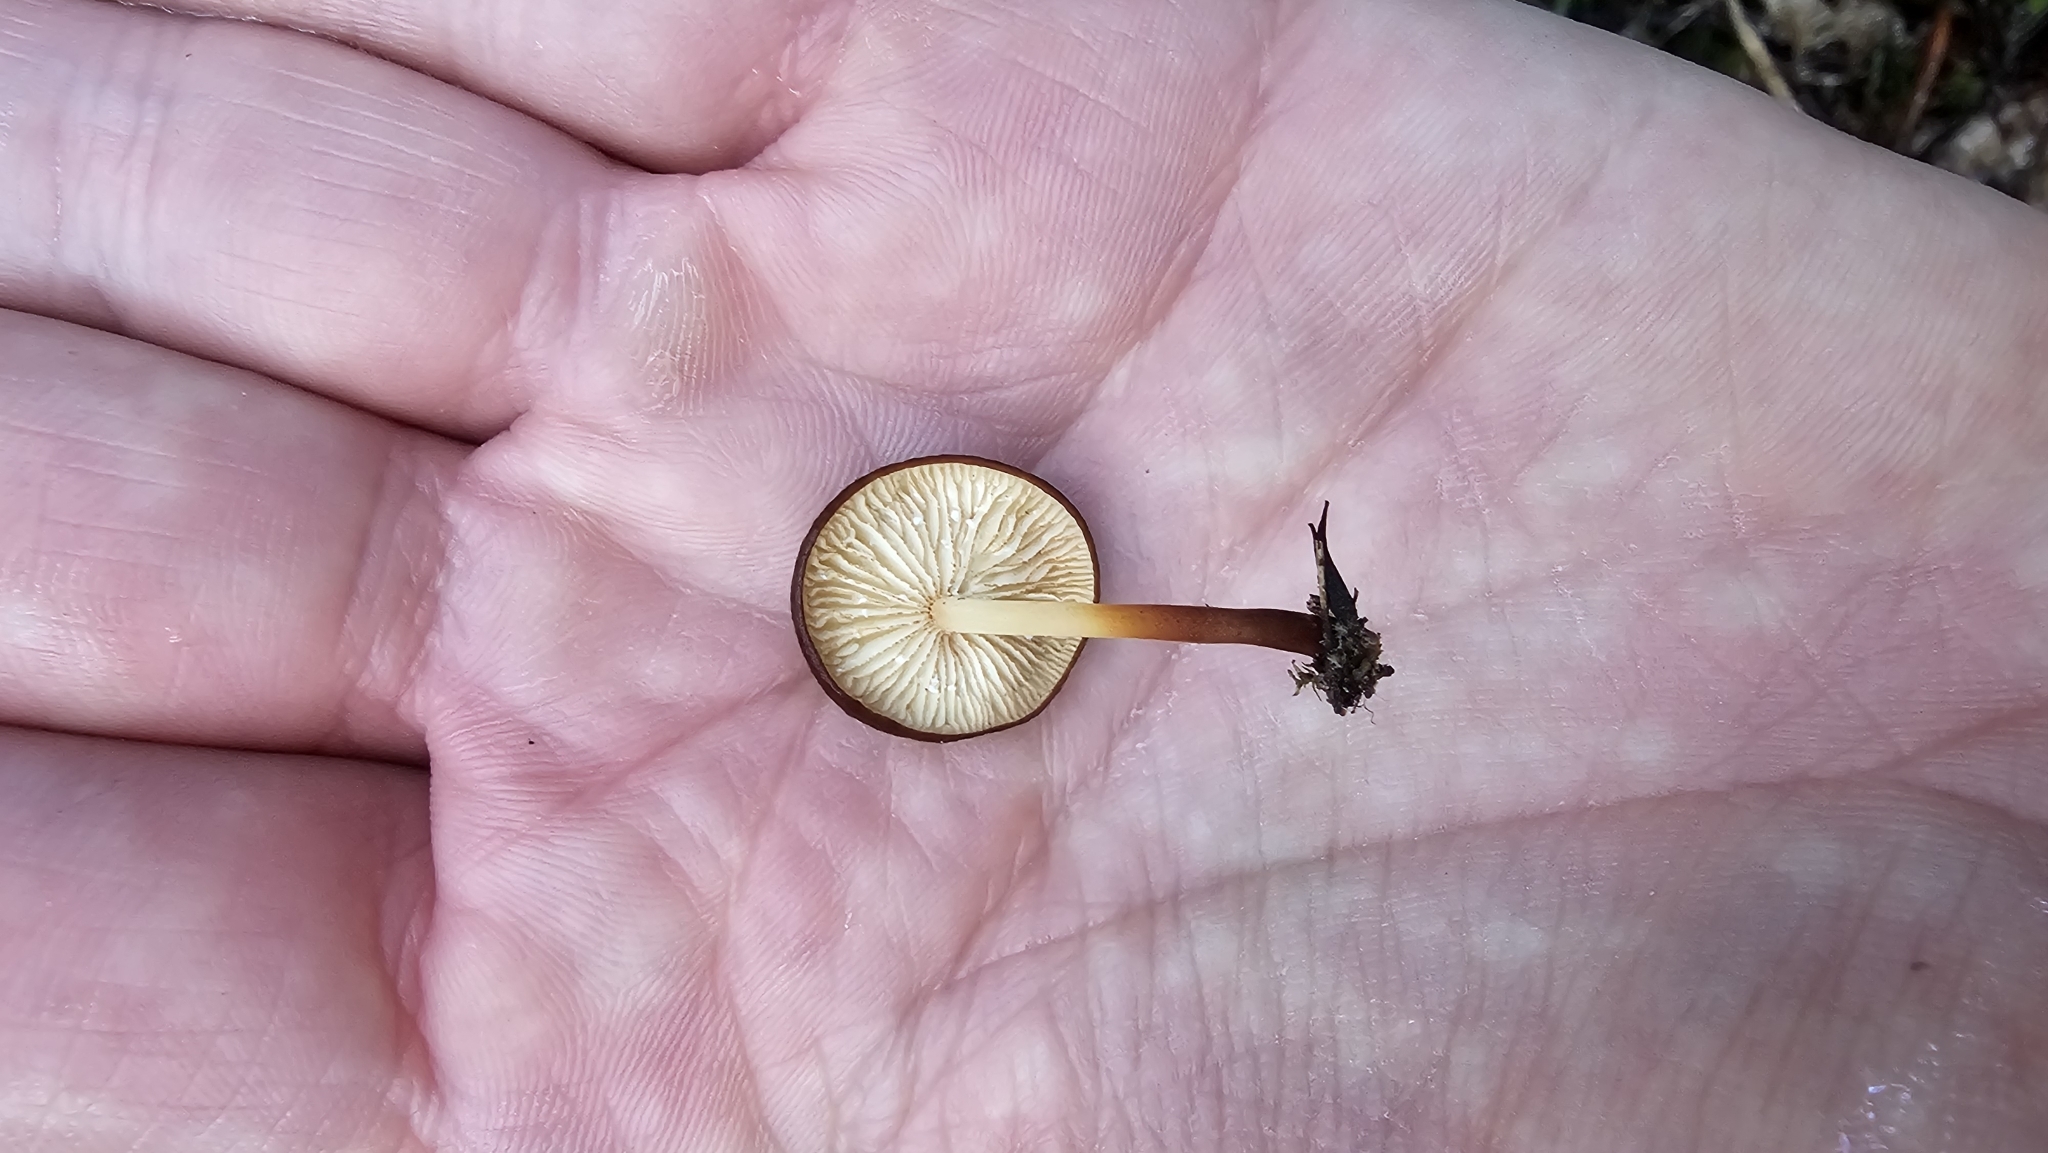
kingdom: Fungi
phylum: Basidiomycota
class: Agaricomycetes
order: Agaricales
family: Marasmiaceae
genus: Marasmius
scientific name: Marasmius elegans
